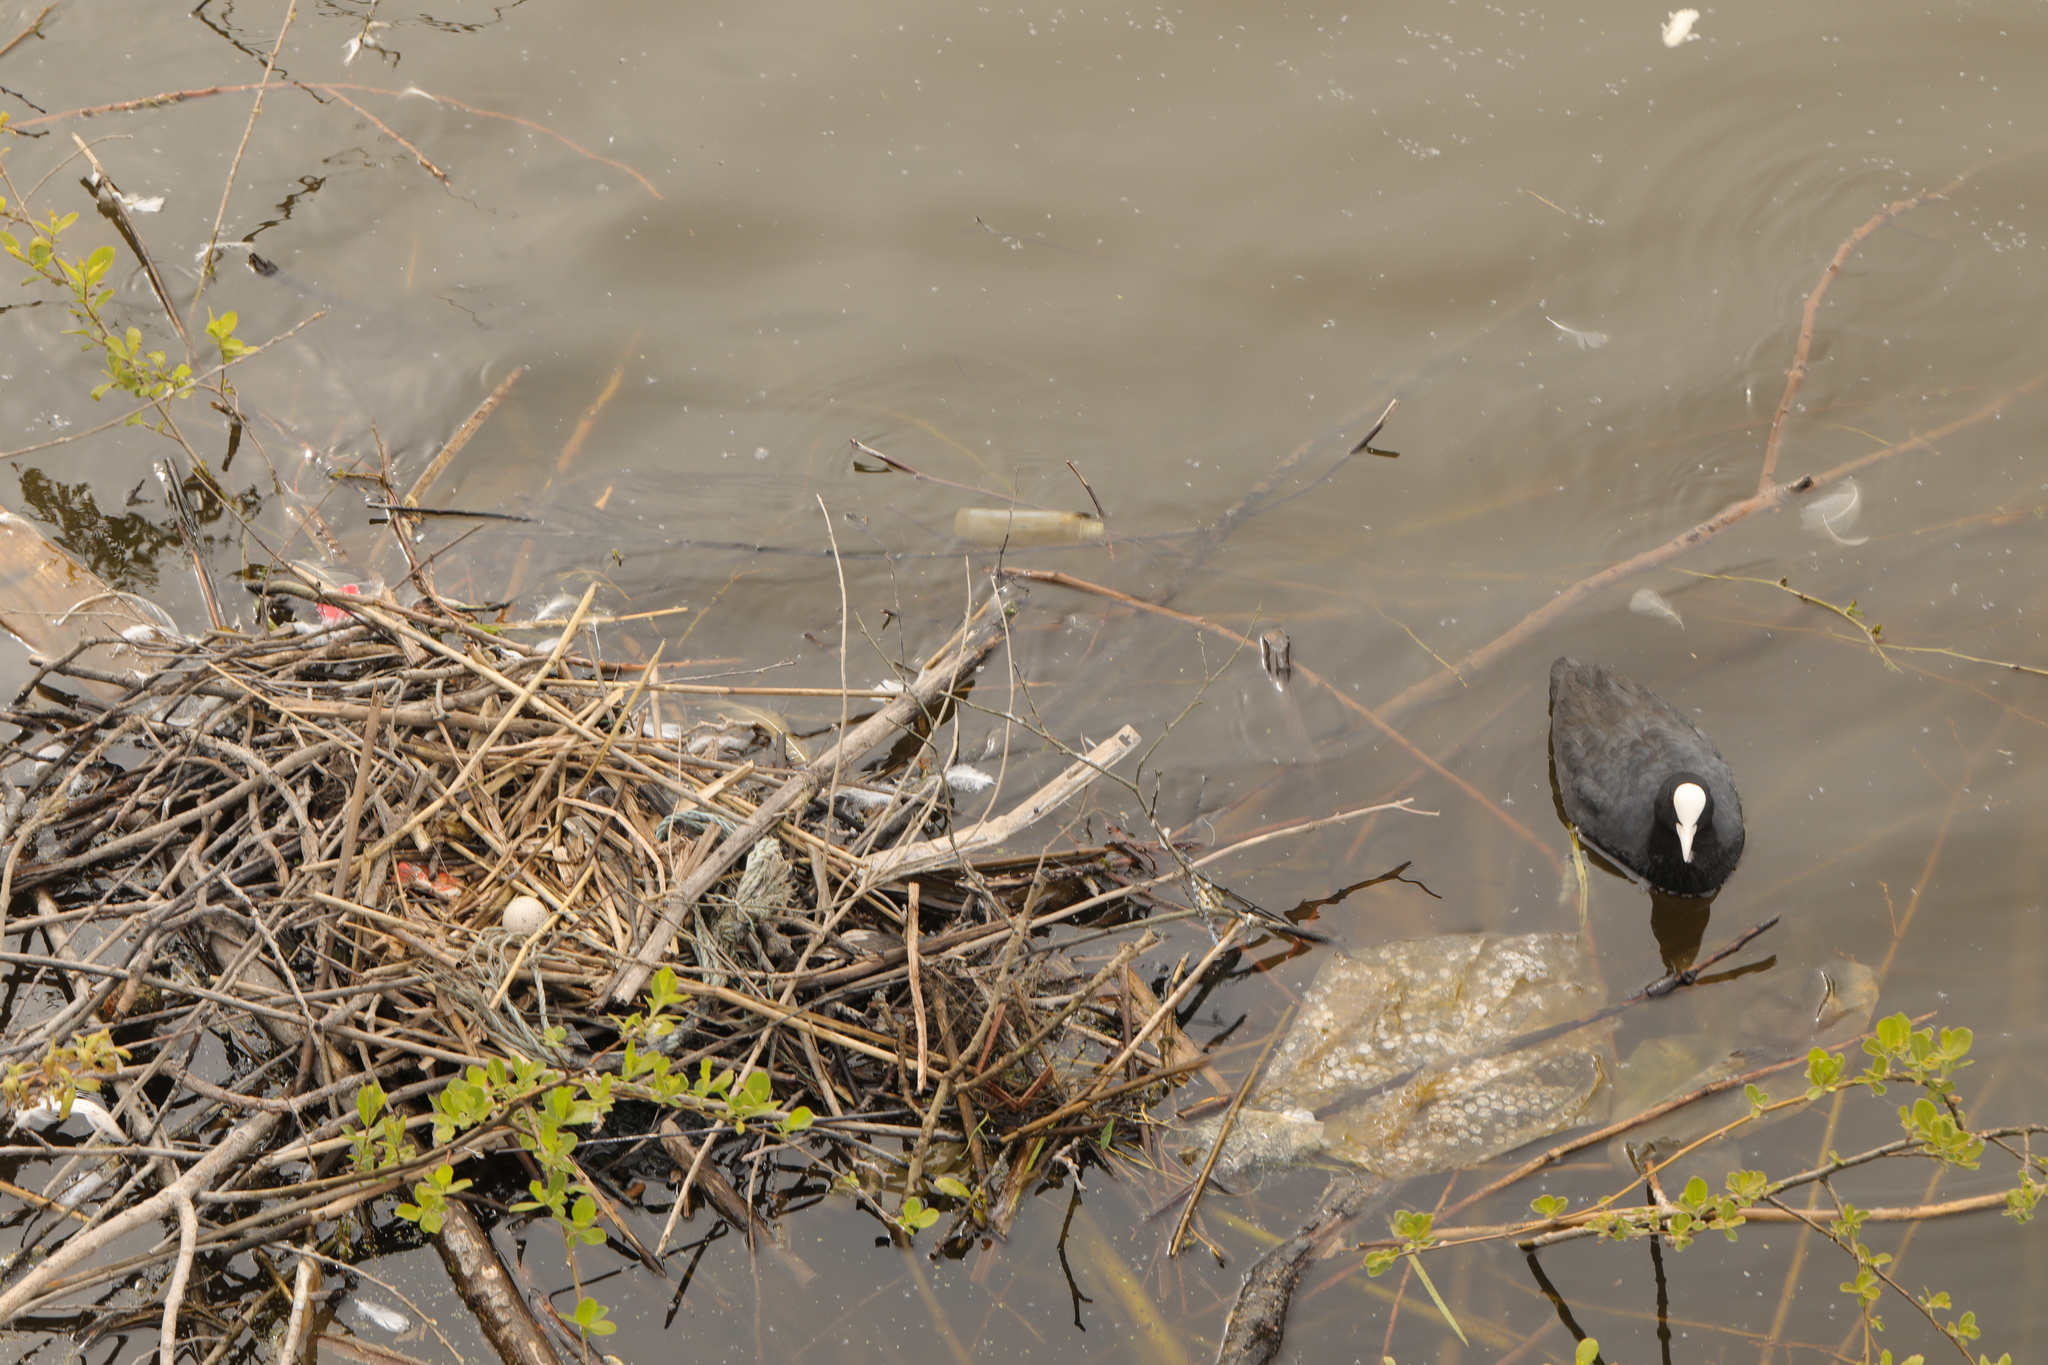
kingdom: Animalia
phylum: Chordata
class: Aves
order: Gruiformes
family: Rallidae
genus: Fulica
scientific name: Fulica atra
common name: Eurasian coot
